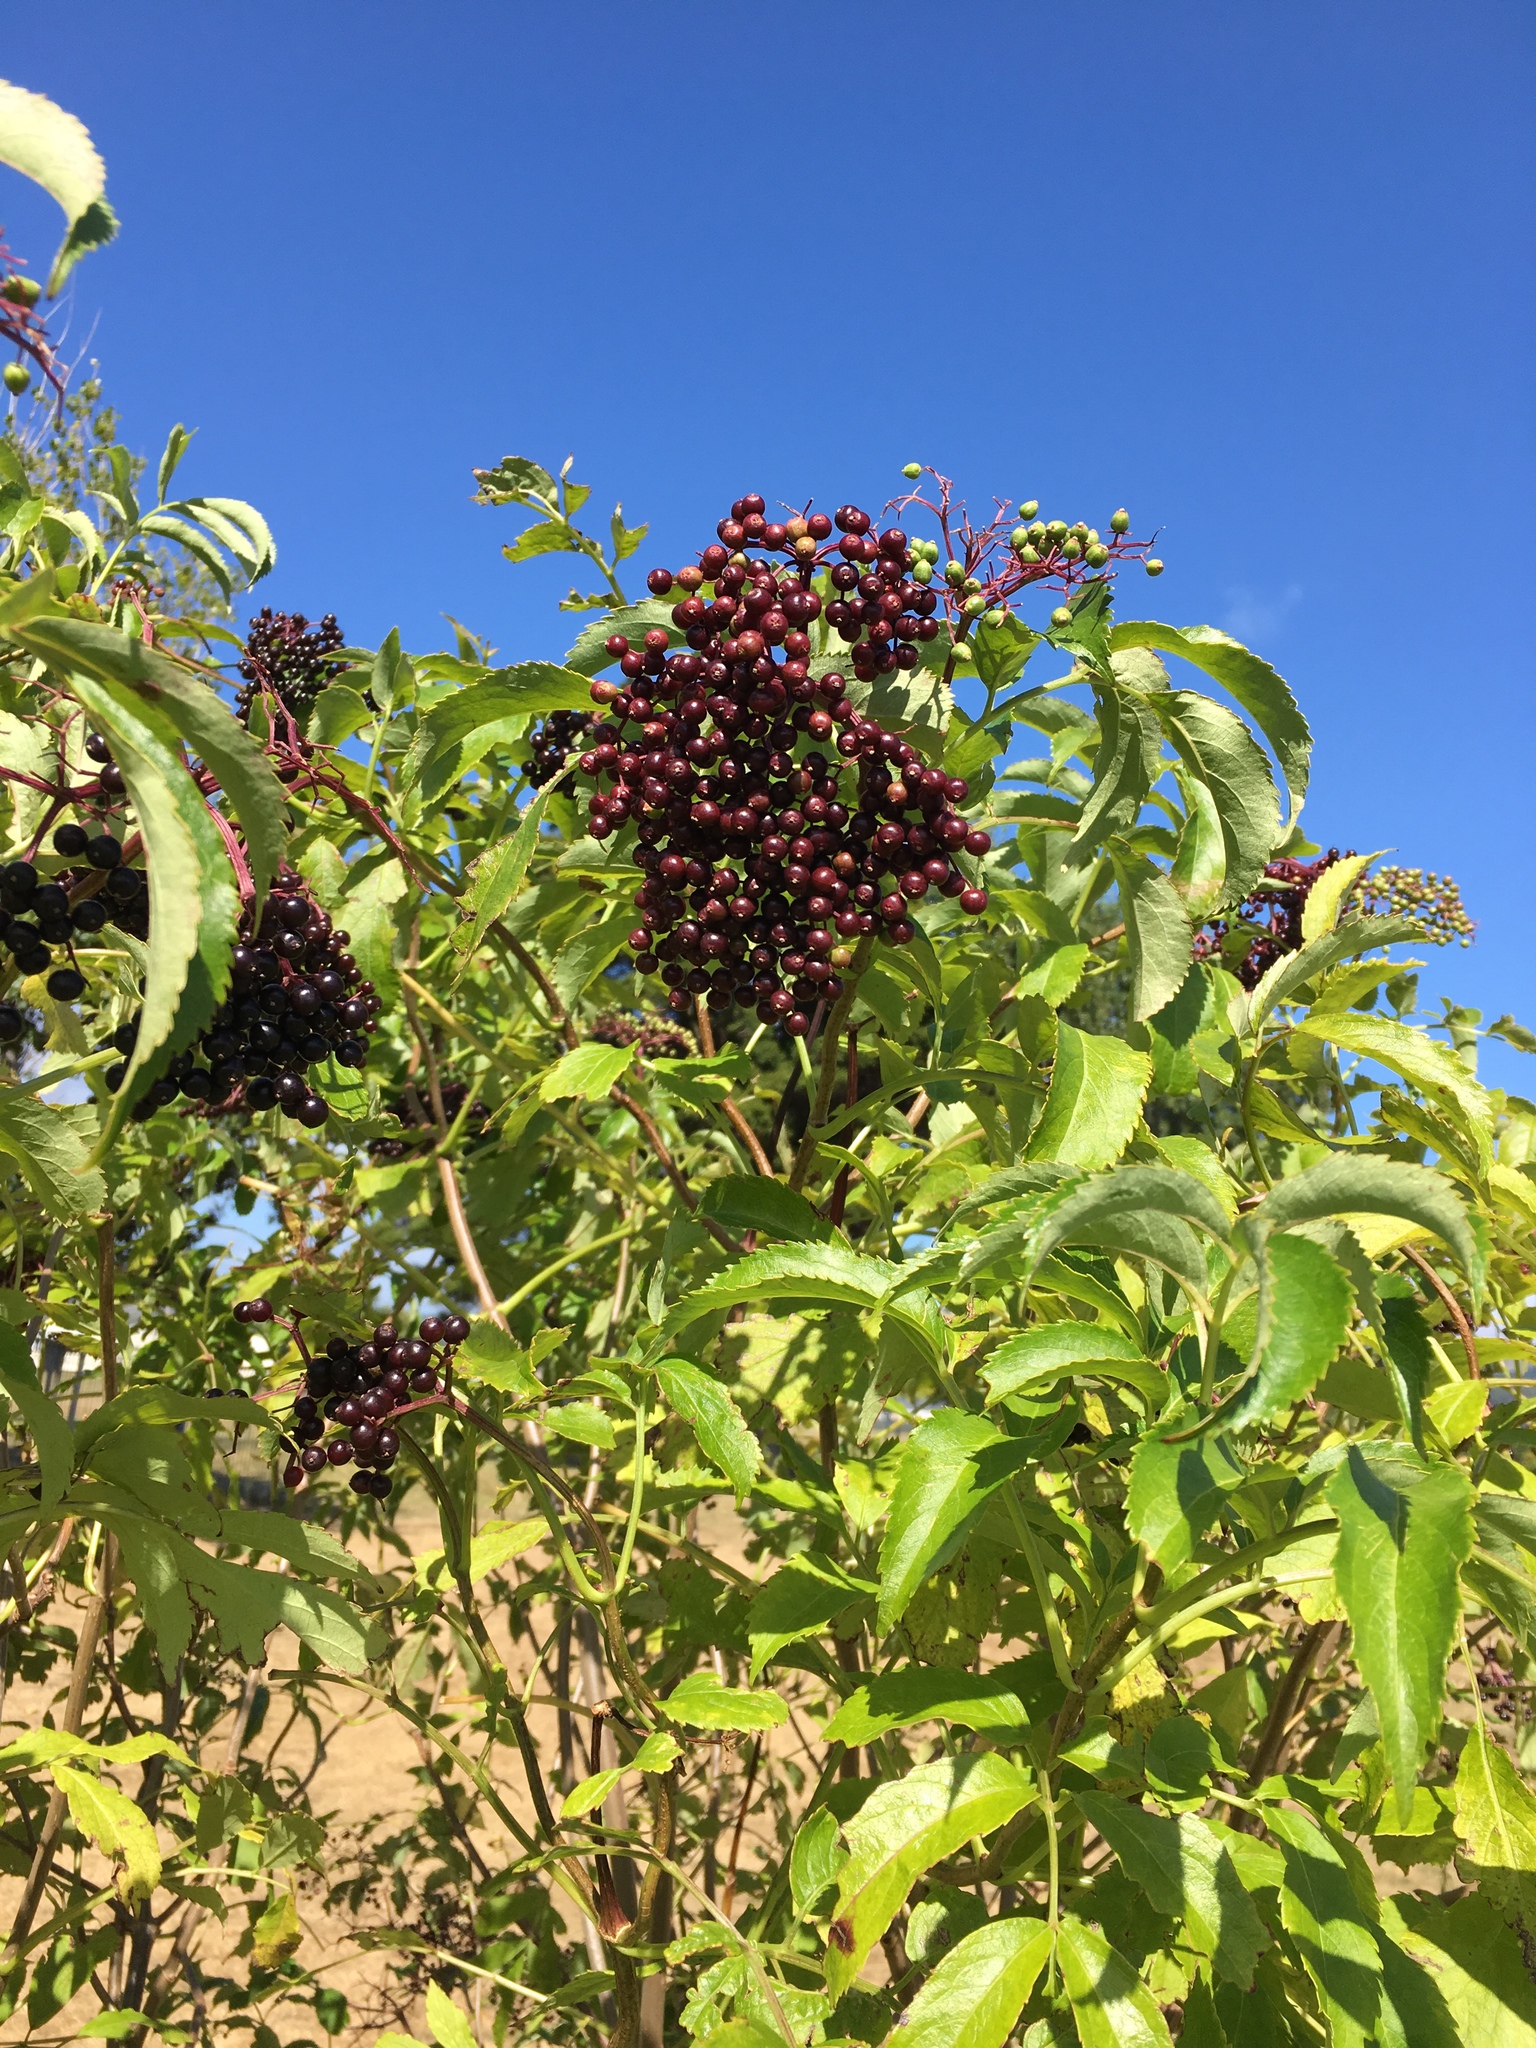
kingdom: Plantae
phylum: Tracheophyta
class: Magnoliopsida
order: Dipsacales
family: Viburnaceae
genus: Sambucus
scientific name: Sambucus nigra
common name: Elder
